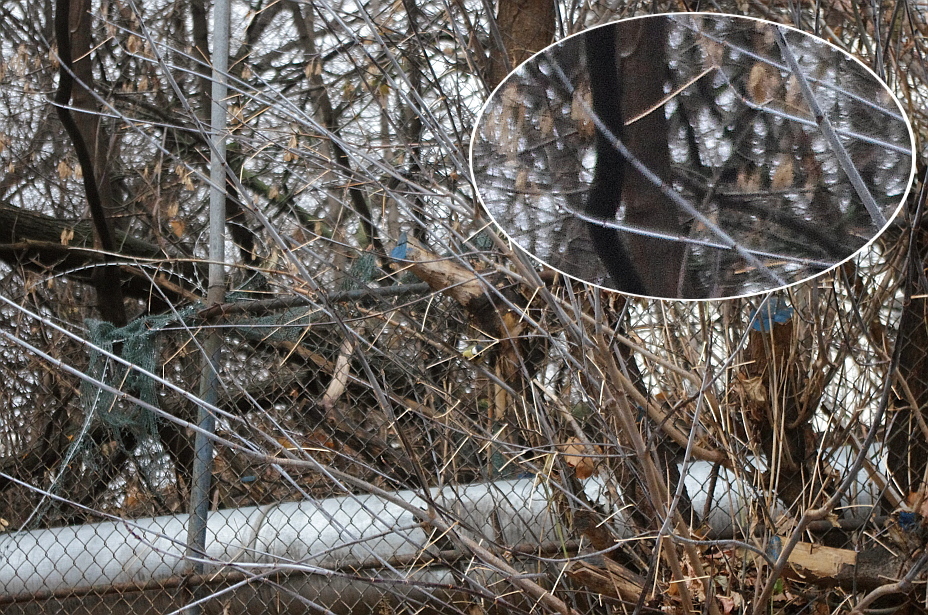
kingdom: Plantae
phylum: Tracheophyta
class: Magnoliopsida
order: Sapindales
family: Sapindaceae
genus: Acer
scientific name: Acer negundo
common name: Ashleaf maple
